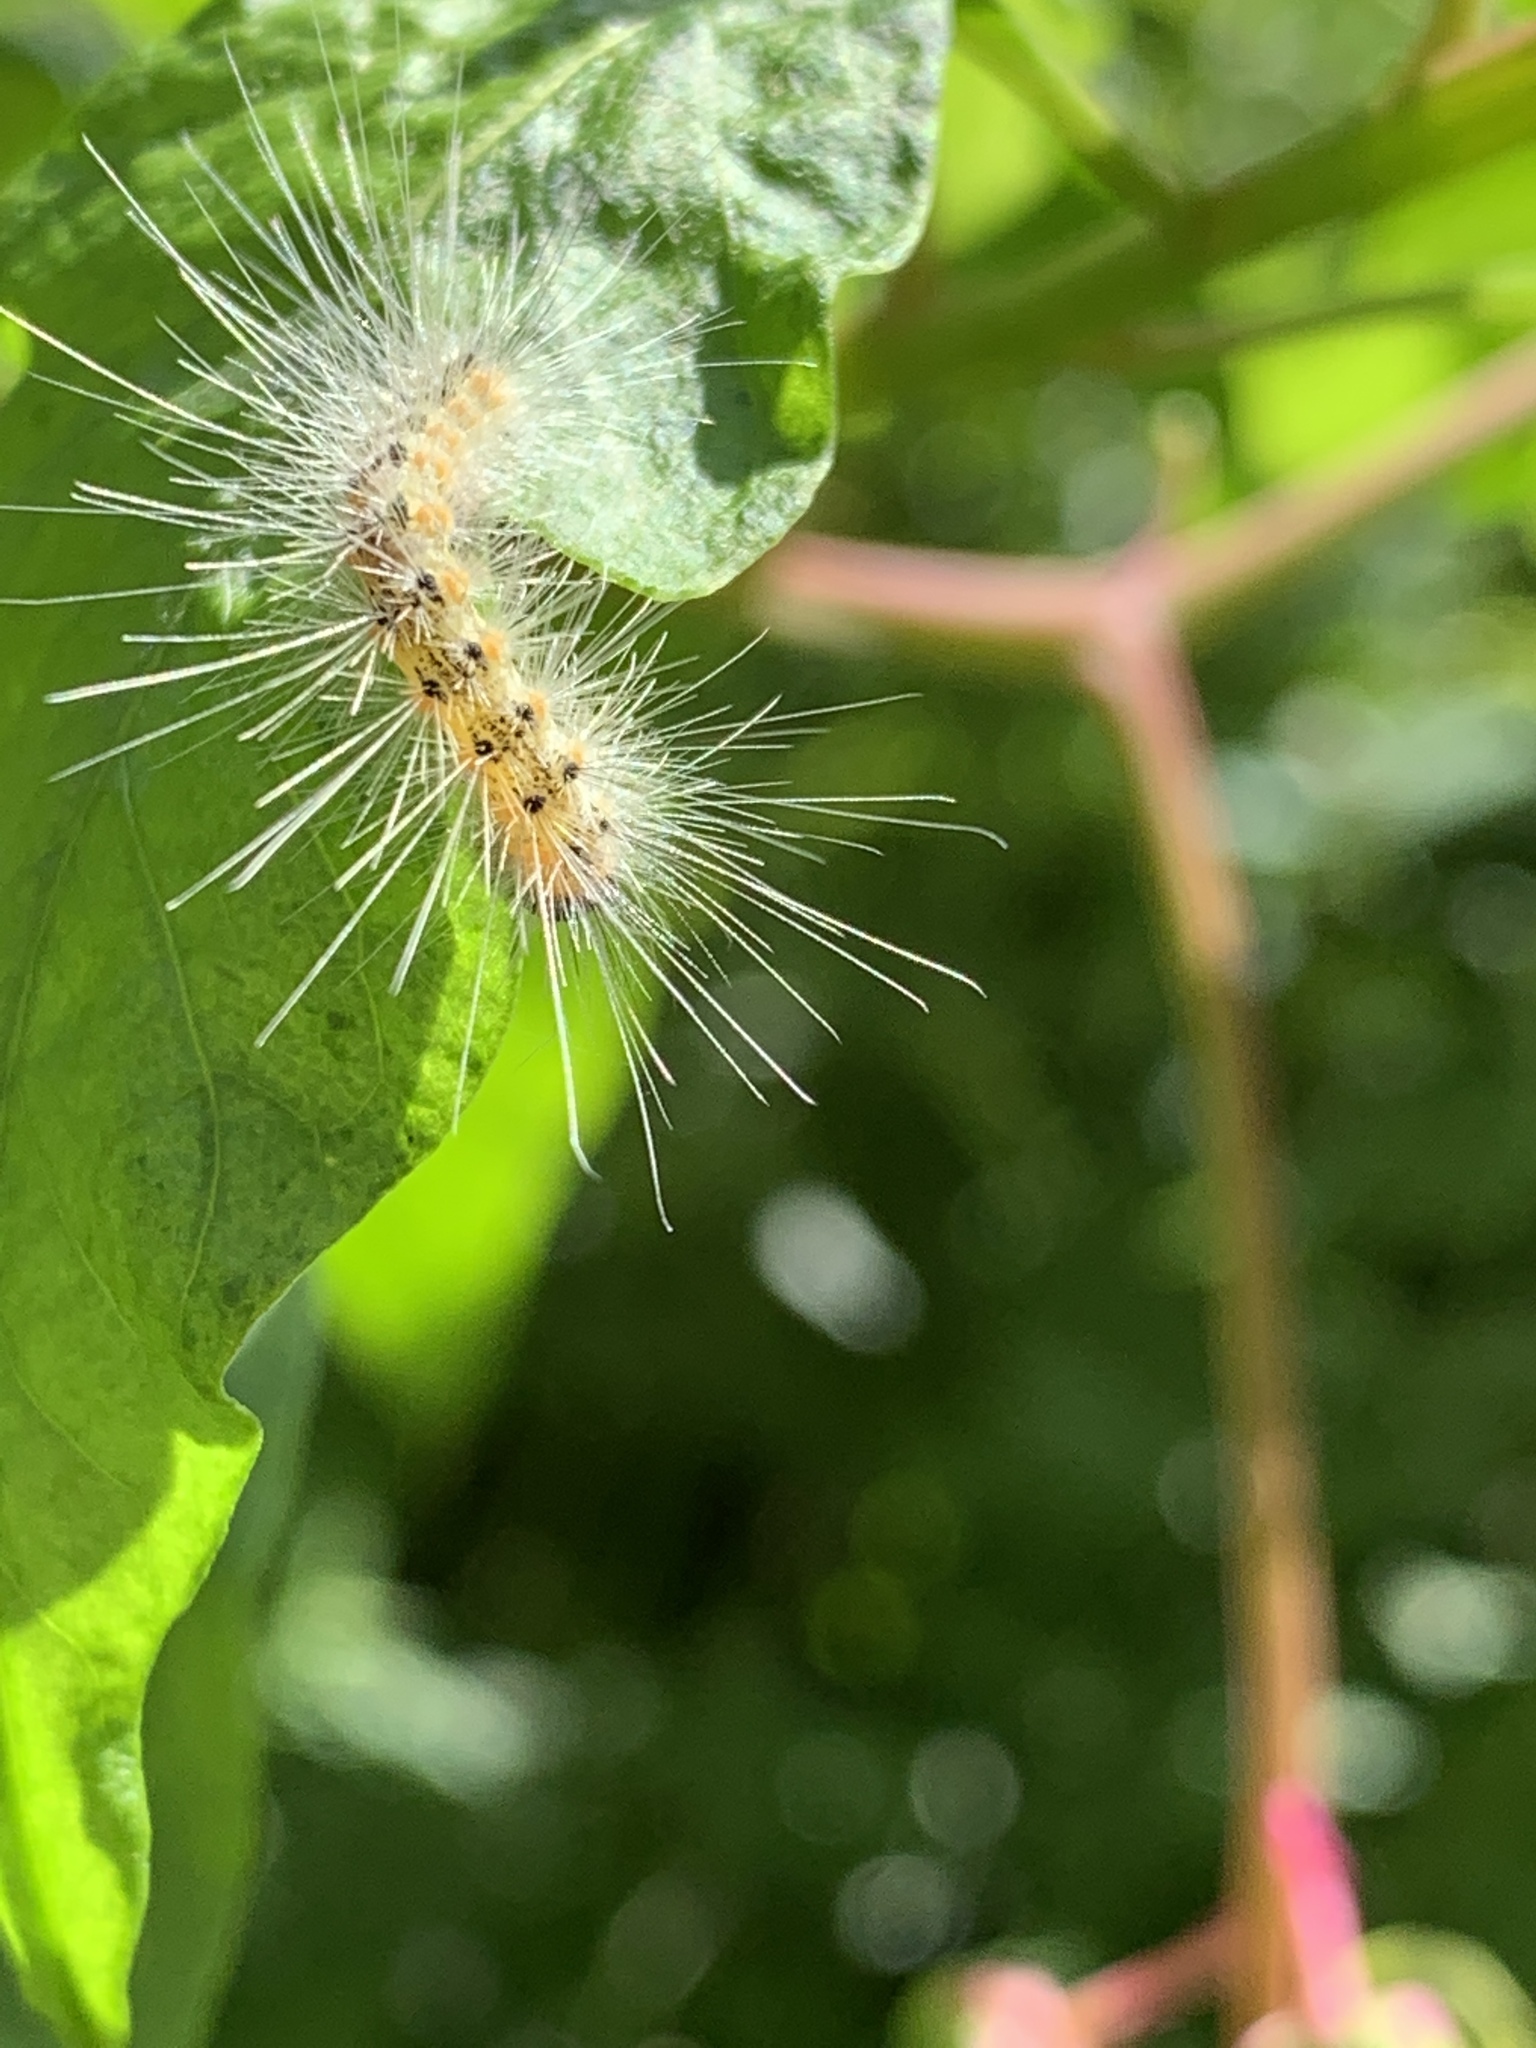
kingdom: Animalia
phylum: Arthropoda
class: Insecta
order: Lepidoptera
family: Erebidae
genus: Hyphantria
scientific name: Hyphantria cunea
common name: American white moth
